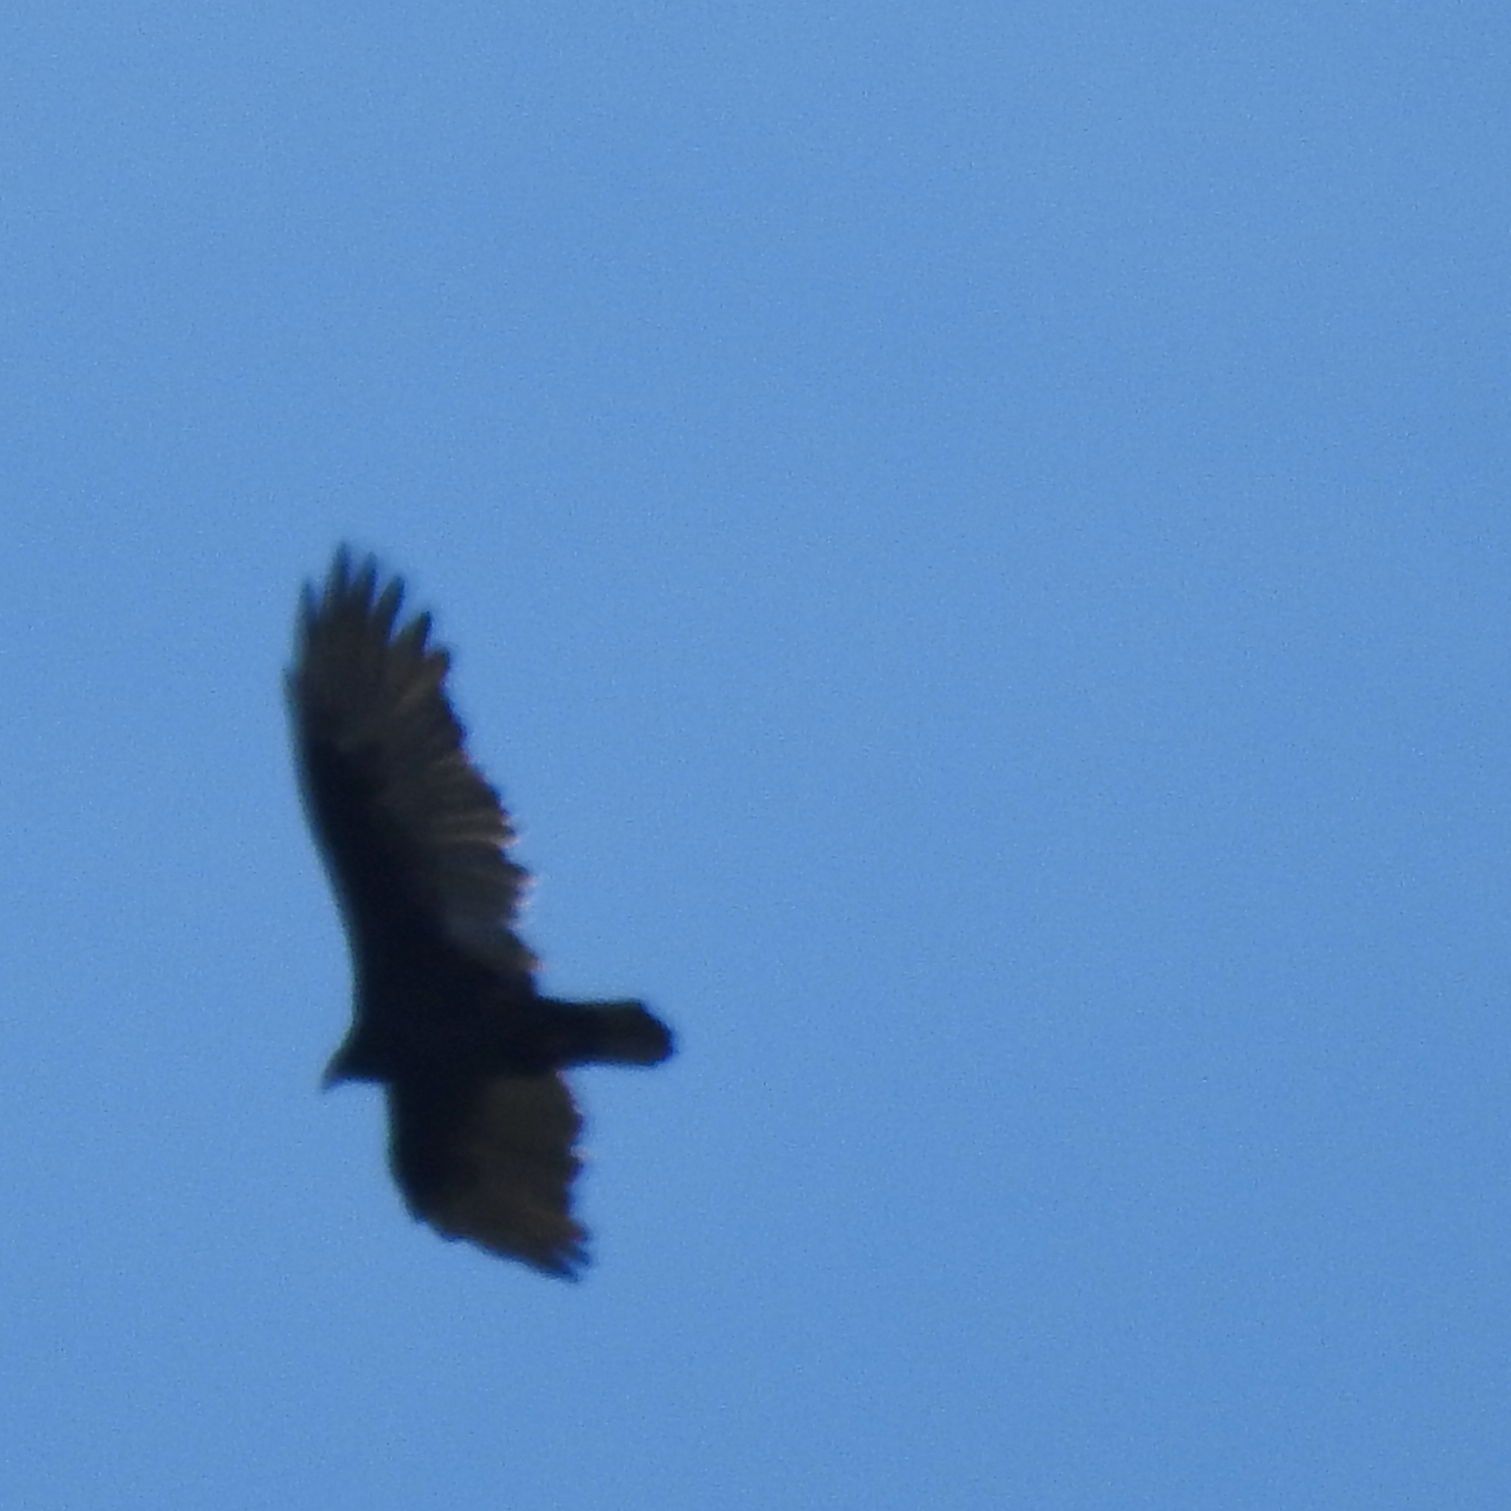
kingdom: Animalia
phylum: Chordata
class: Aves
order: Accipitriformes
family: Cathartidae
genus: Cathartes
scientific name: Cathartes aura
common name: Turkey vulture
